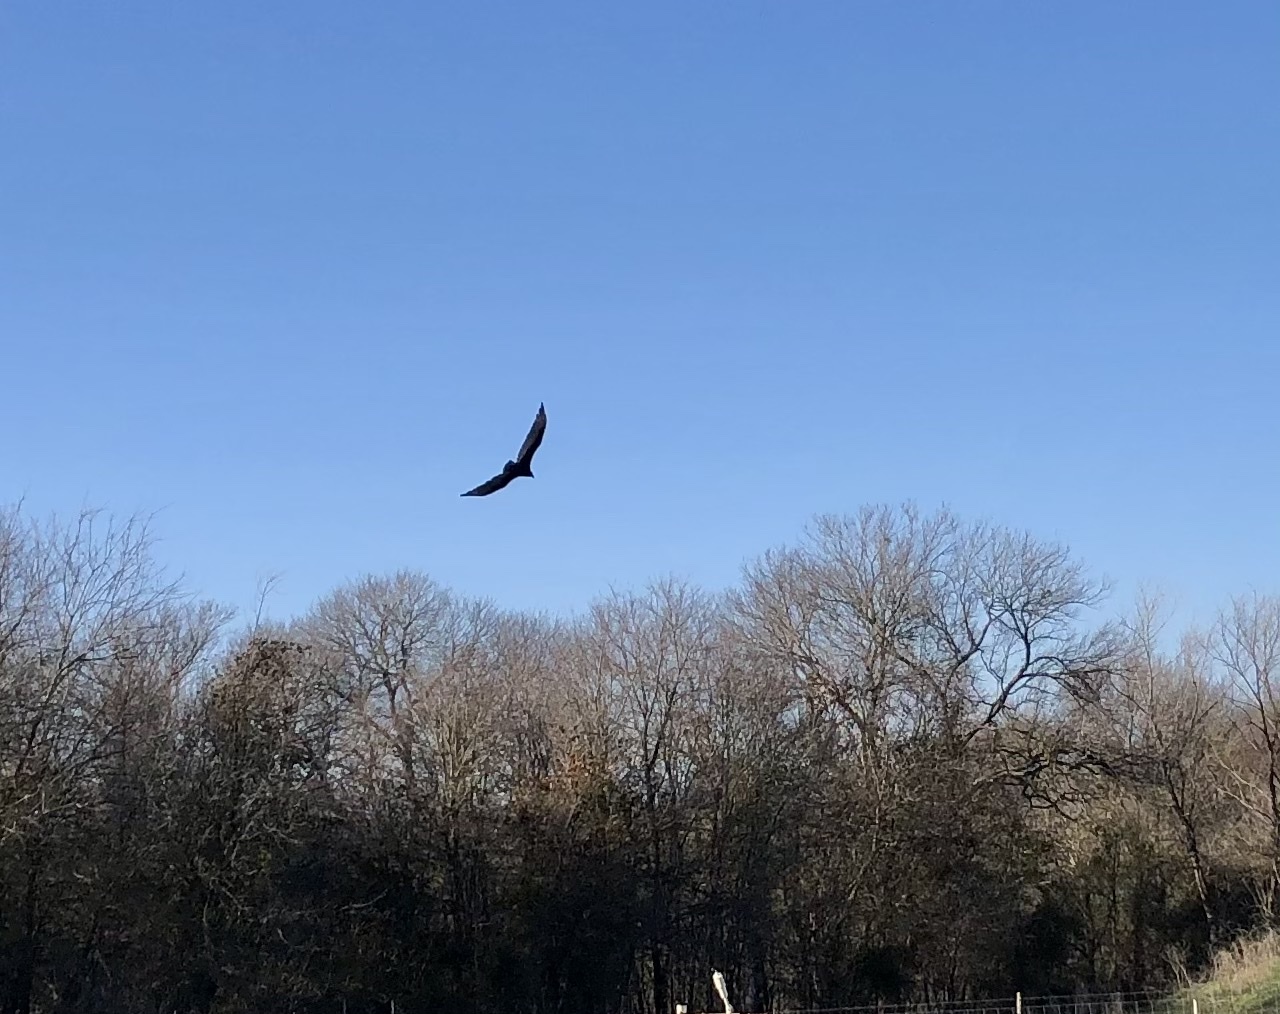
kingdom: Animalia
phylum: Chordata
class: Aves
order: Accipitriformes
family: Cathartidae
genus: Cathartes
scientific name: Cathartes aura
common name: Turkey vulture
